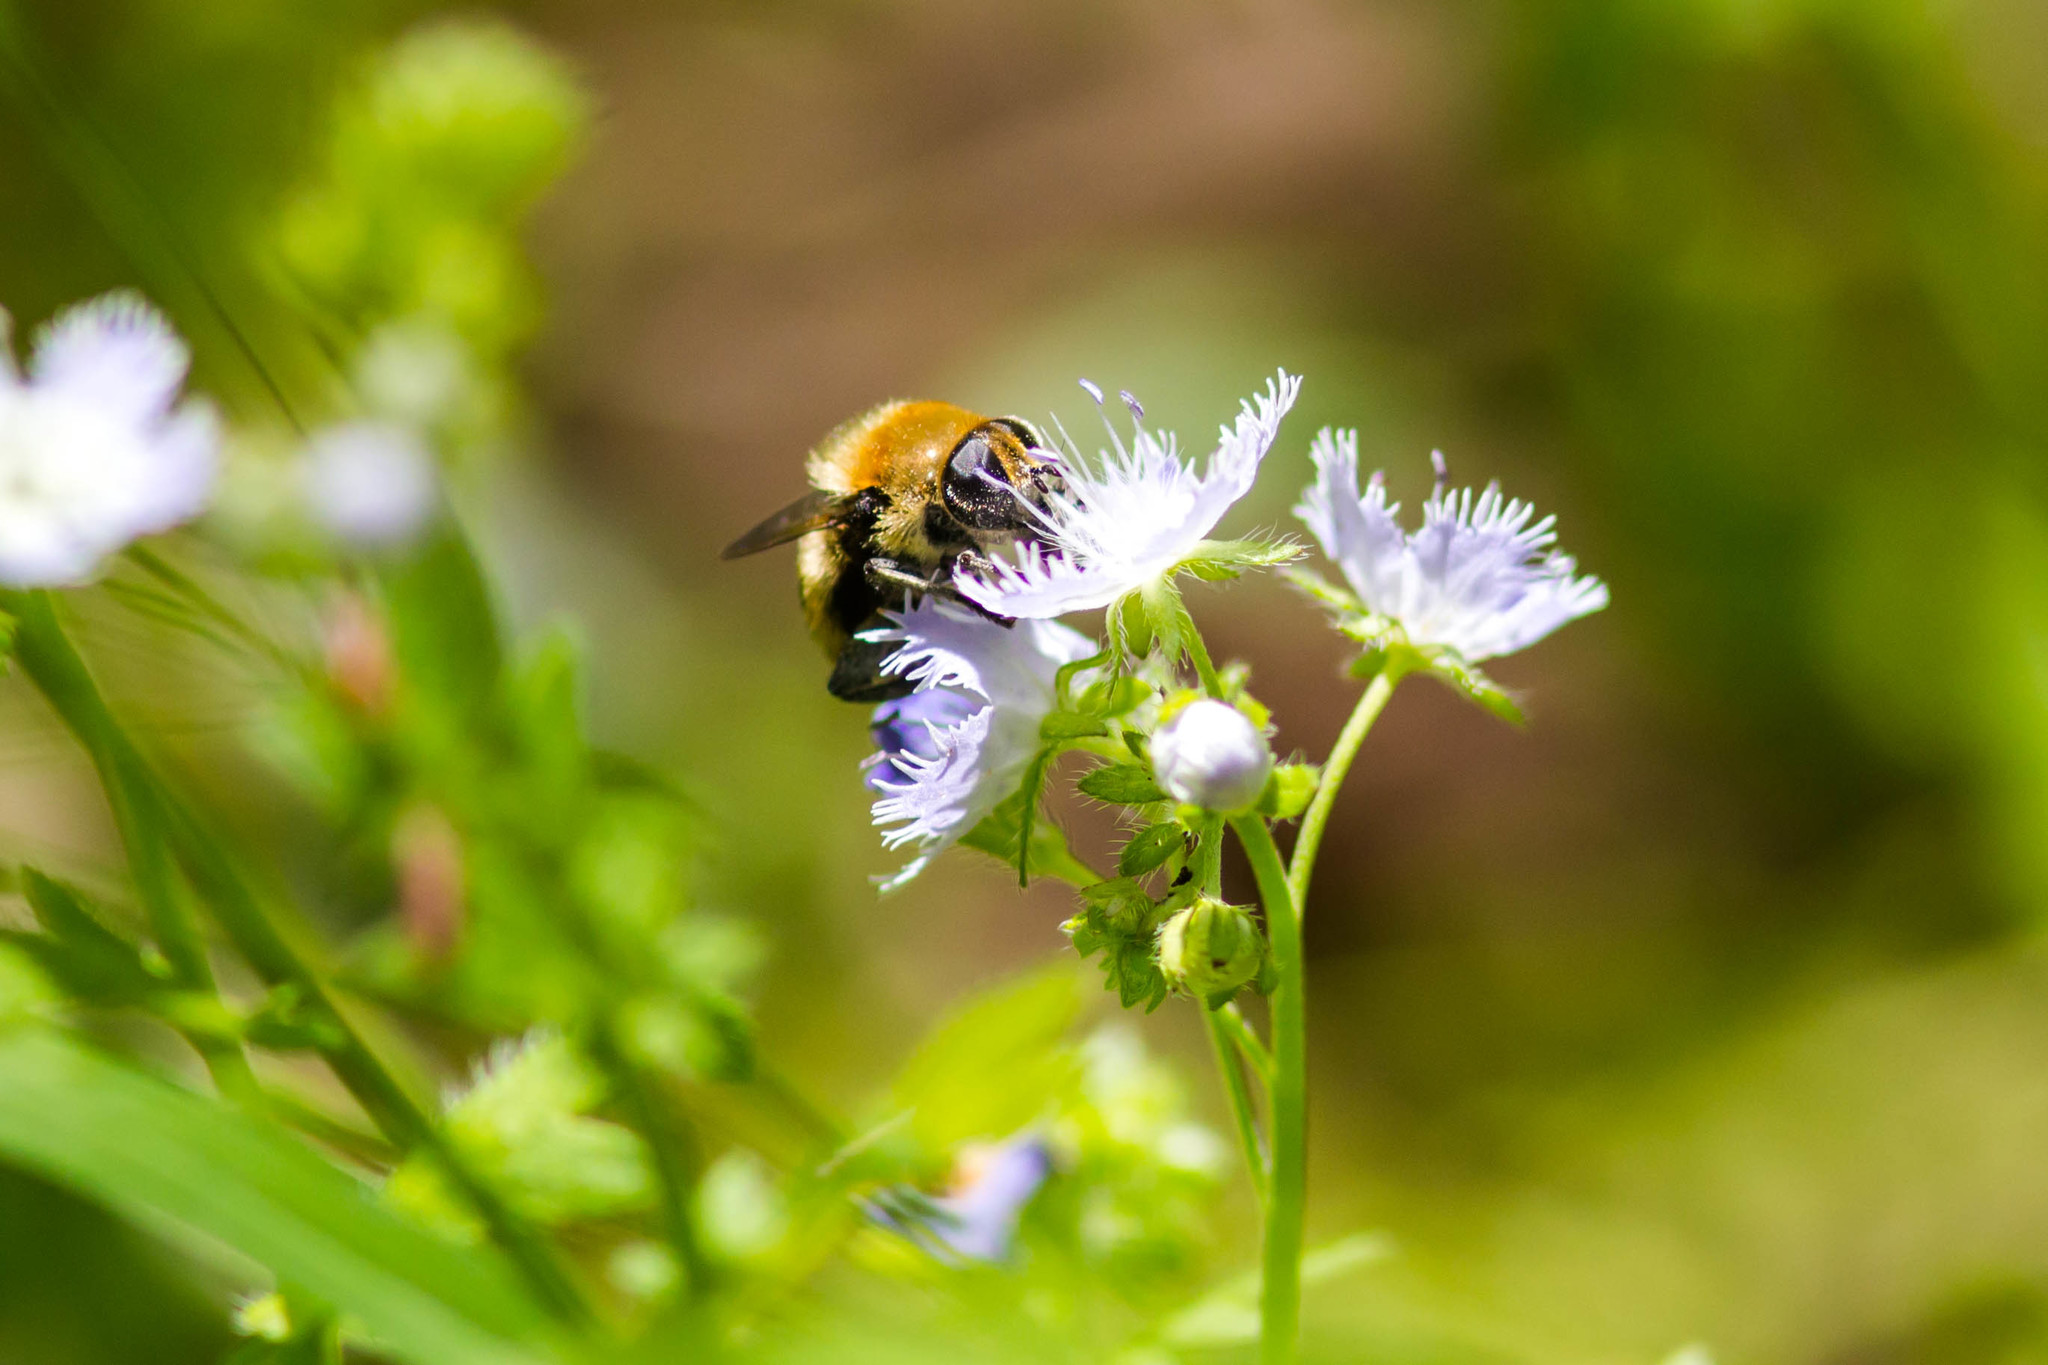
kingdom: Animalia
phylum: Arthropoda
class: Insecta
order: Diptera
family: Syrphidae
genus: Merodon
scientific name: Merodon equestris
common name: Greater bulb-fly
